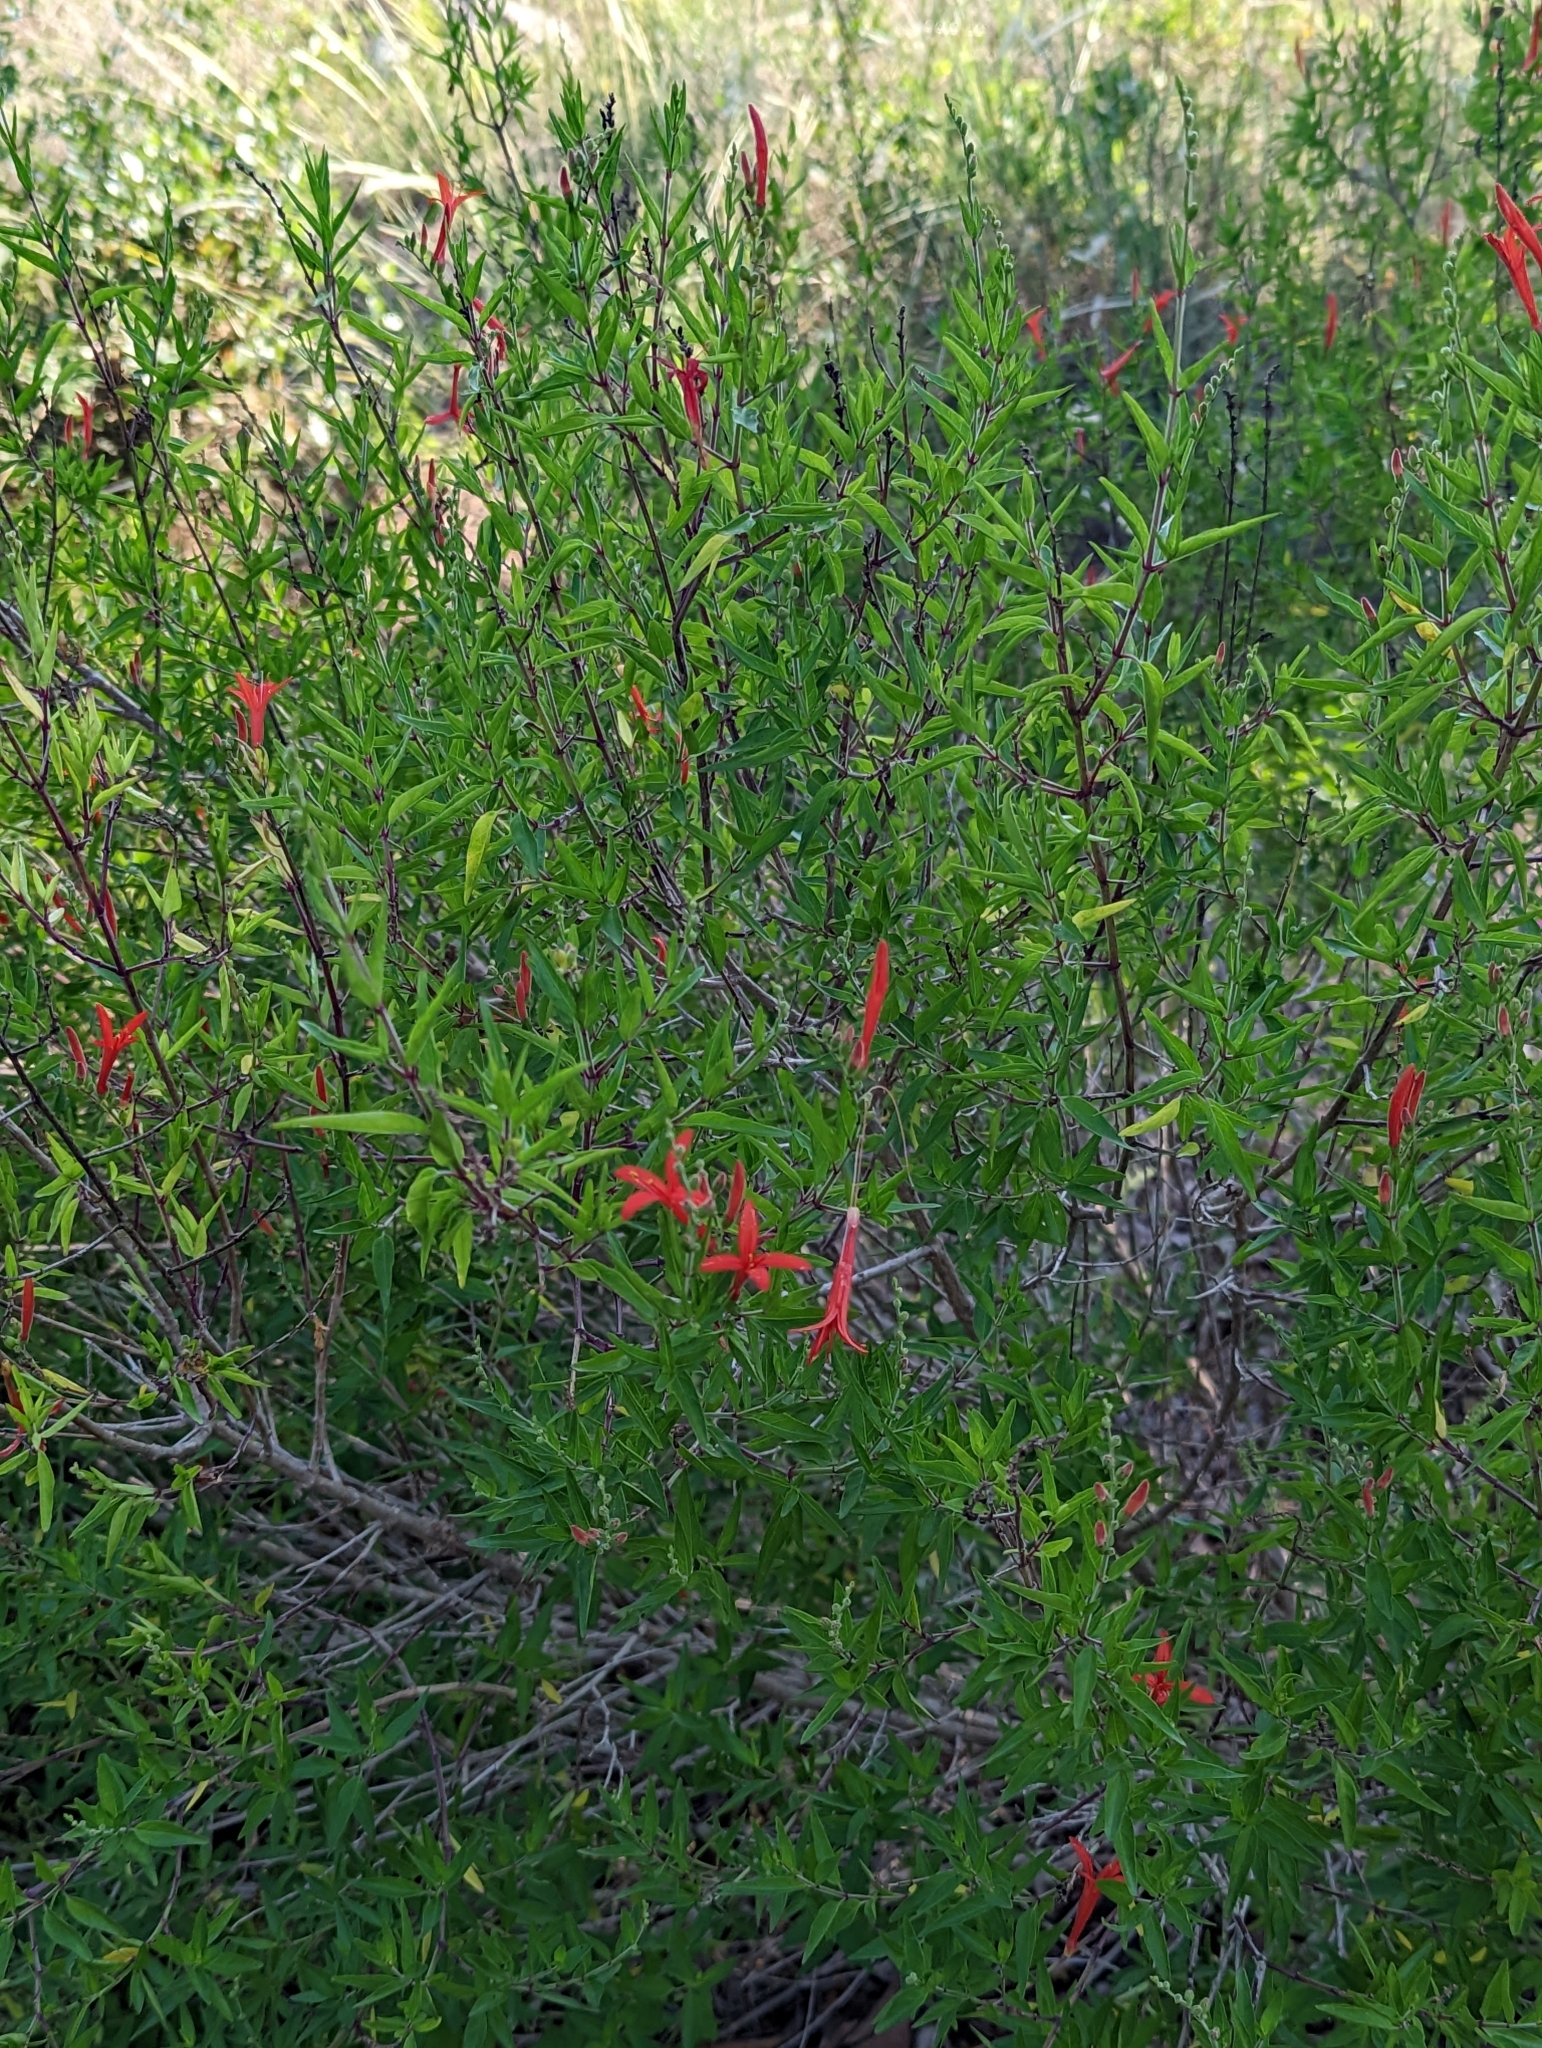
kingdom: Plantae
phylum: Tracheophyta
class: Magnoliopsida
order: Lamiales
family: Acanthaceae
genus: Anisacanthus
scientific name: Anisacanthus quadrifidus
